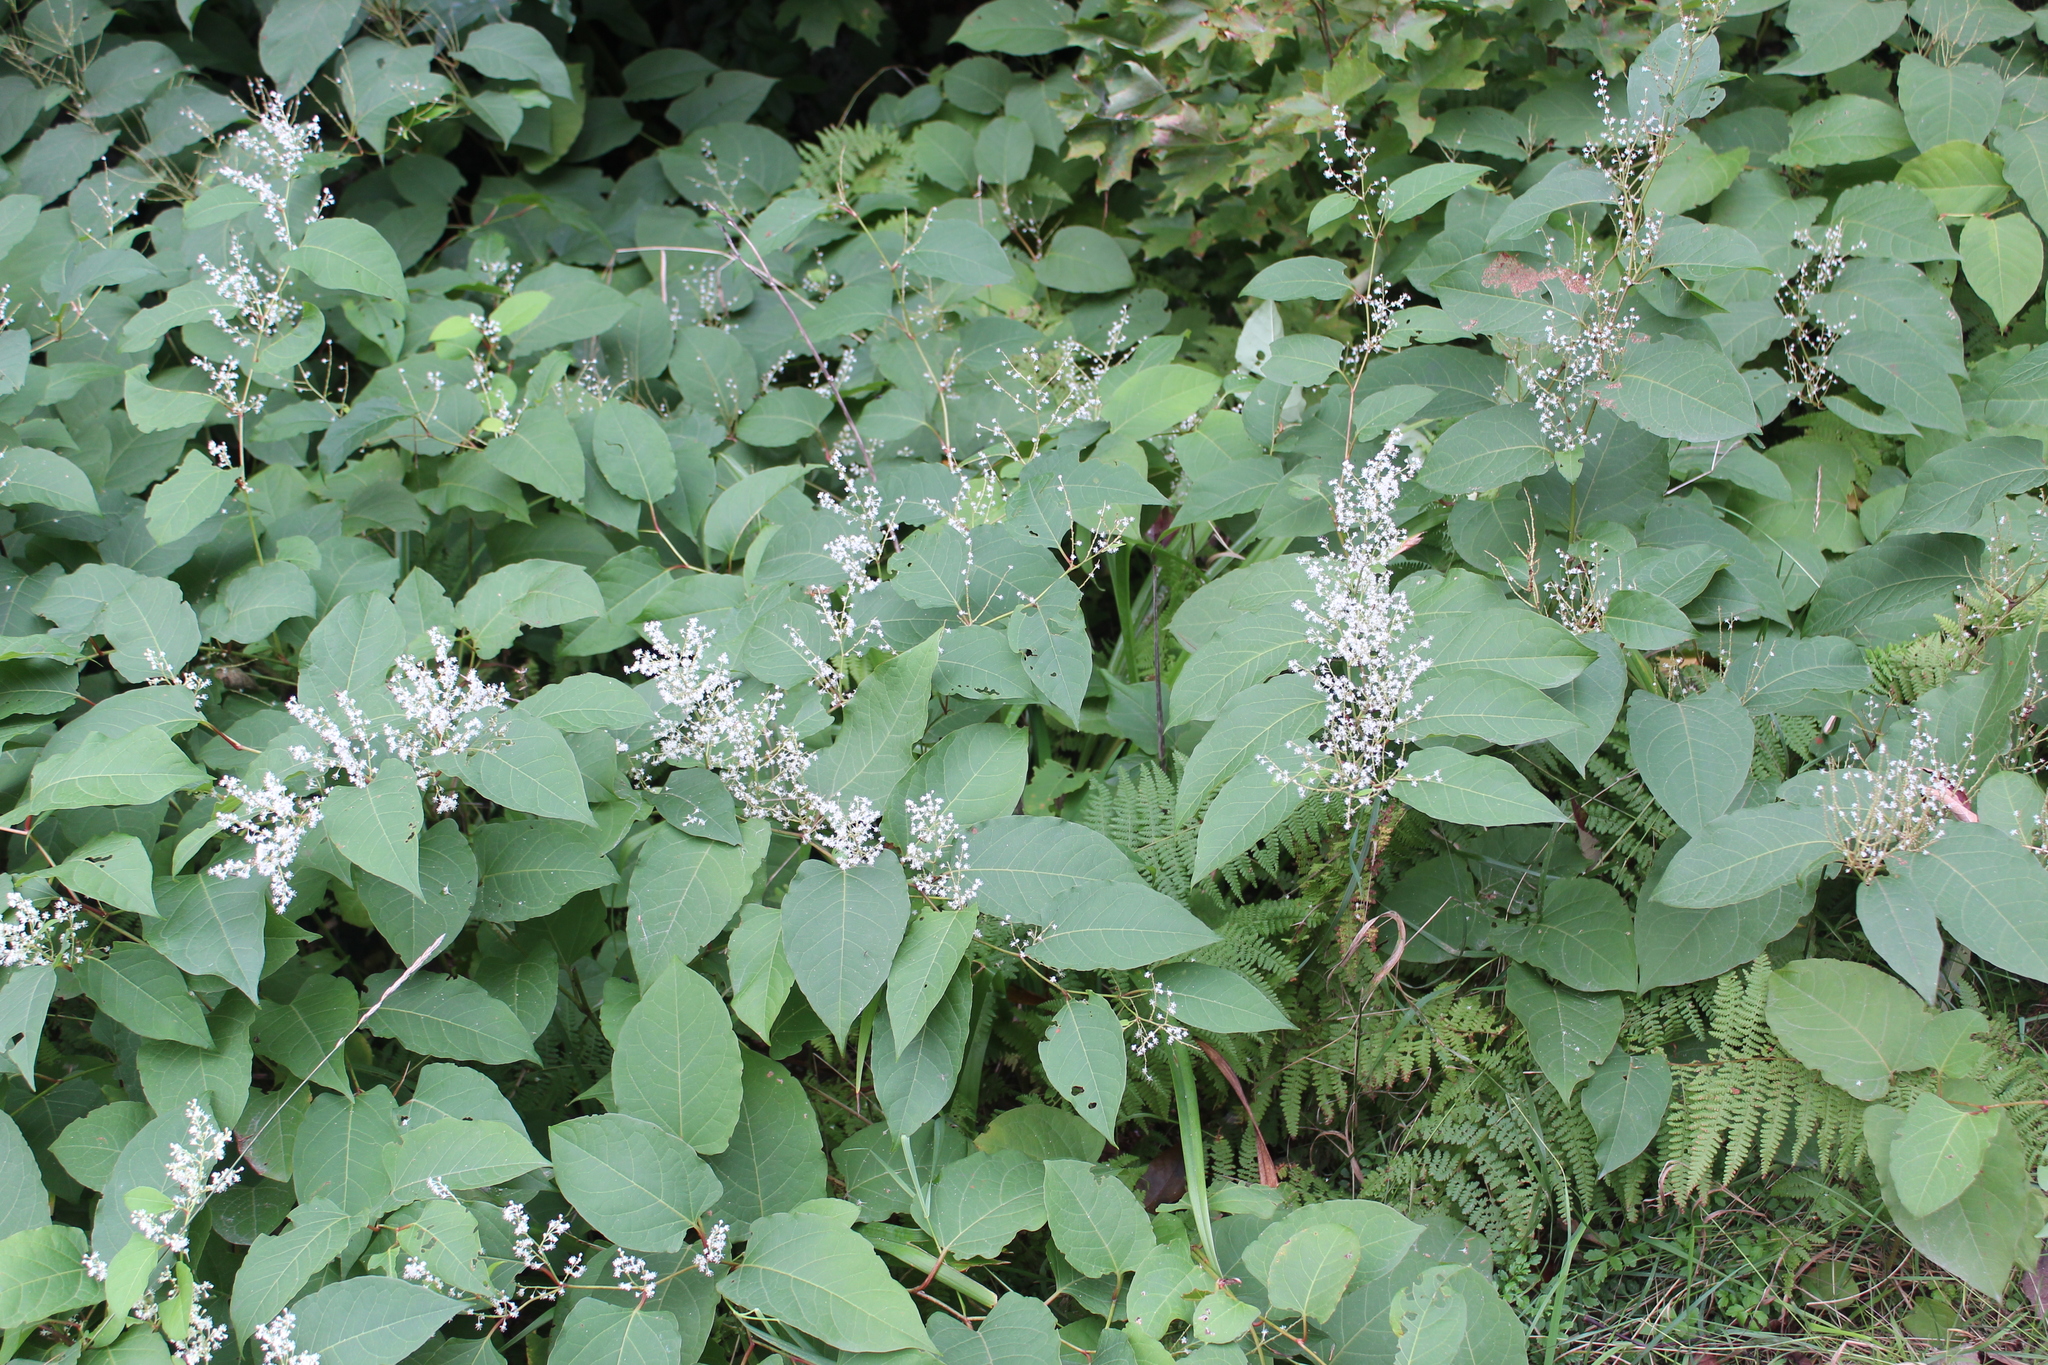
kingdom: Plantae
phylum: Tracheophyta
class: Magnoliopsida
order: Caryophyllales
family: Polygonaceae
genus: Reynoutria
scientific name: Reynoutria japonica
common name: Japanese knotweed
